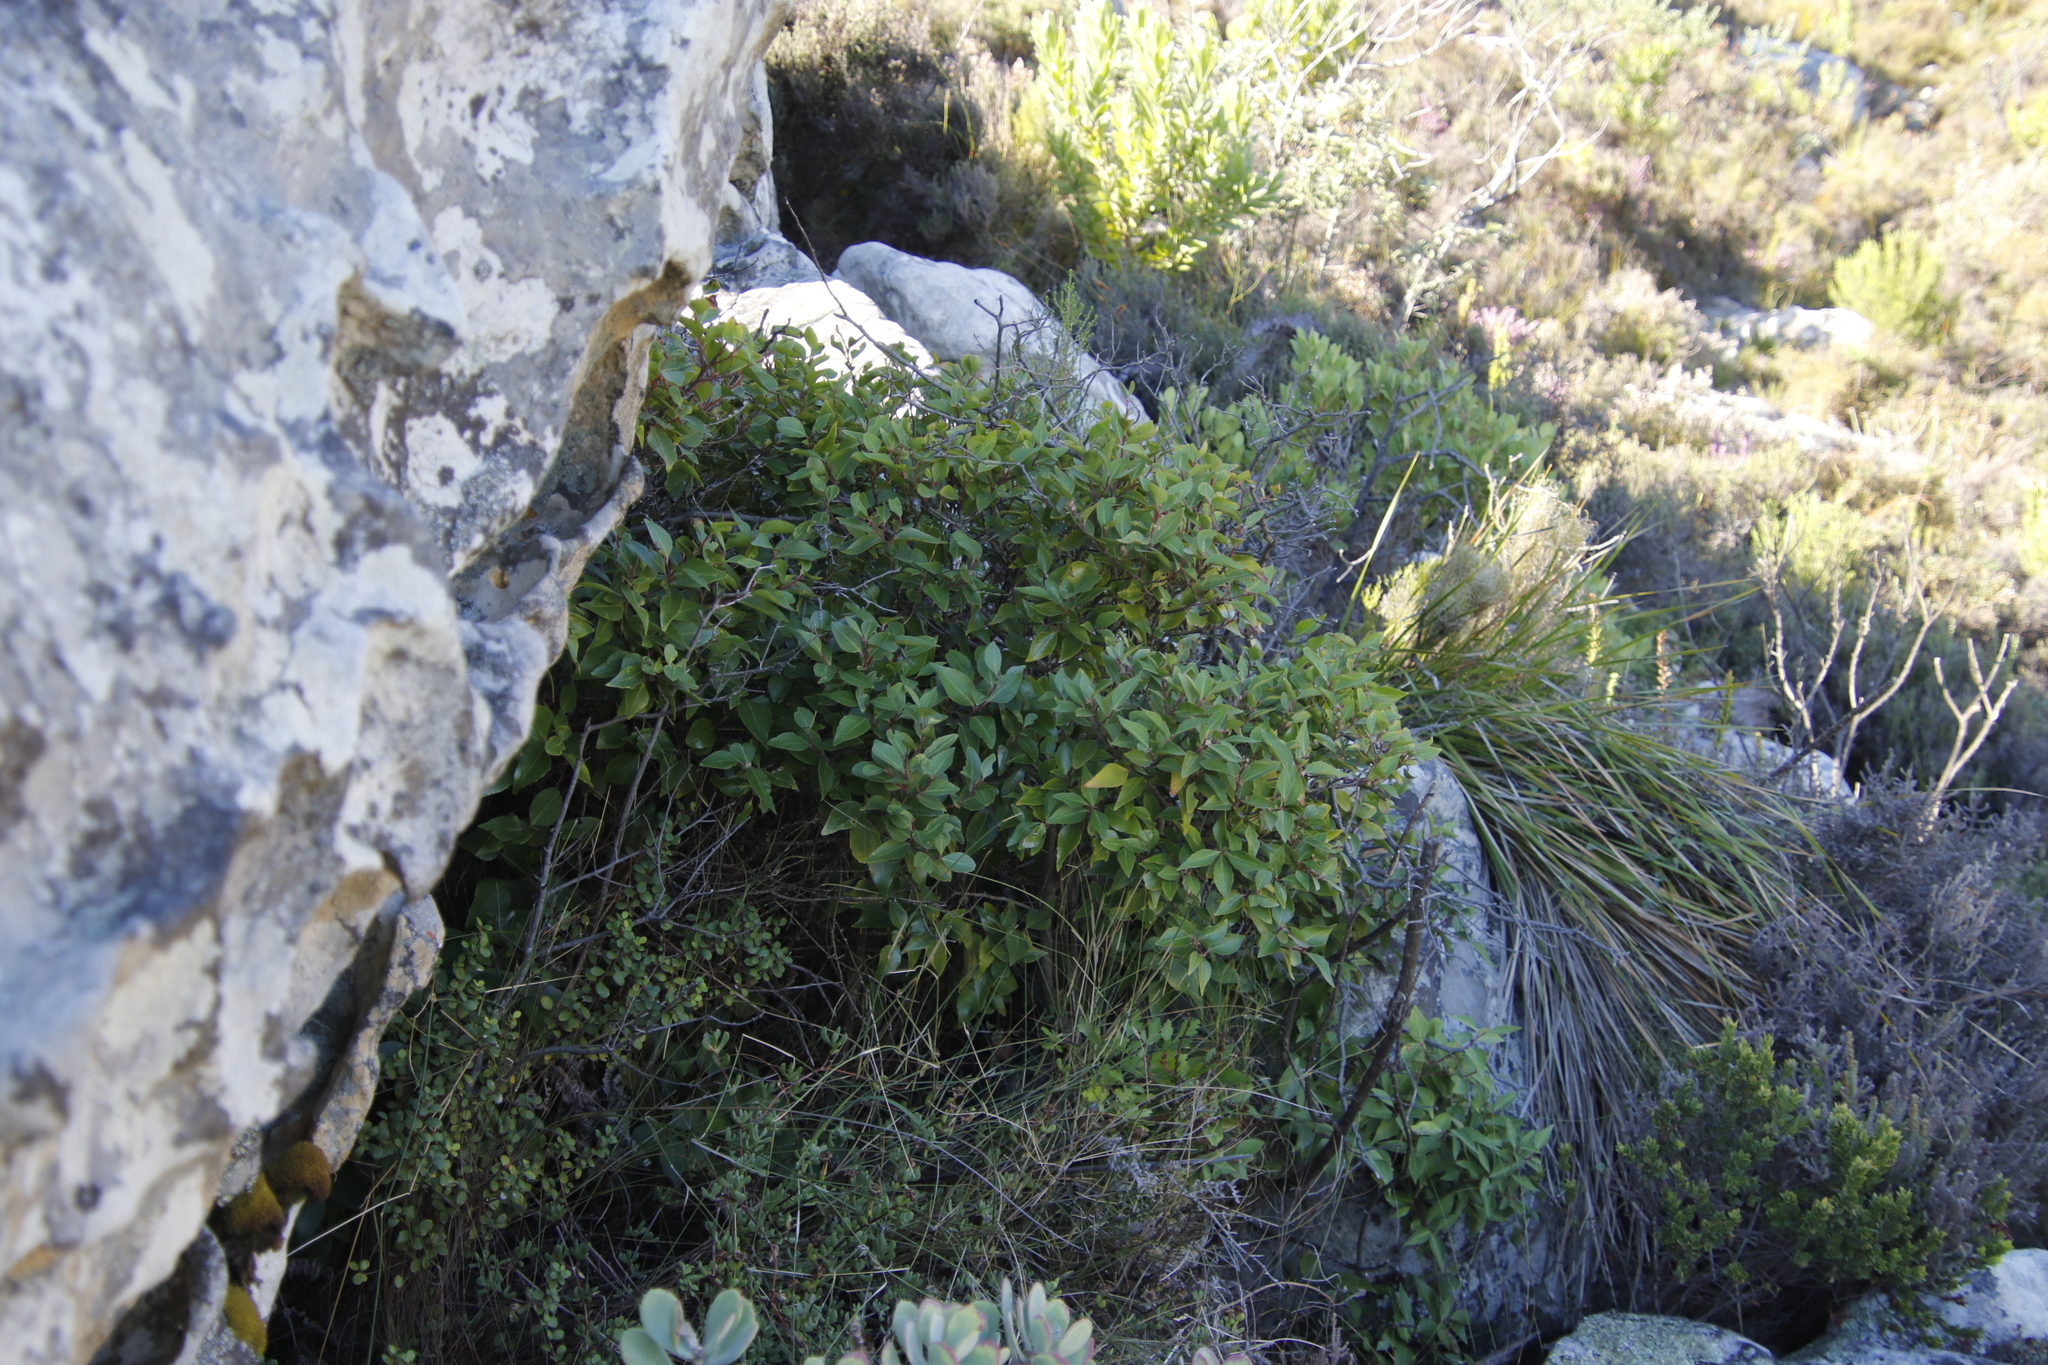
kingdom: Plantae
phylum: Tracheophyta
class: Magnoliopsida
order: Celastrales
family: Celastraceae
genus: Gymnosporia
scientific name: Gymnosporia acuminata
